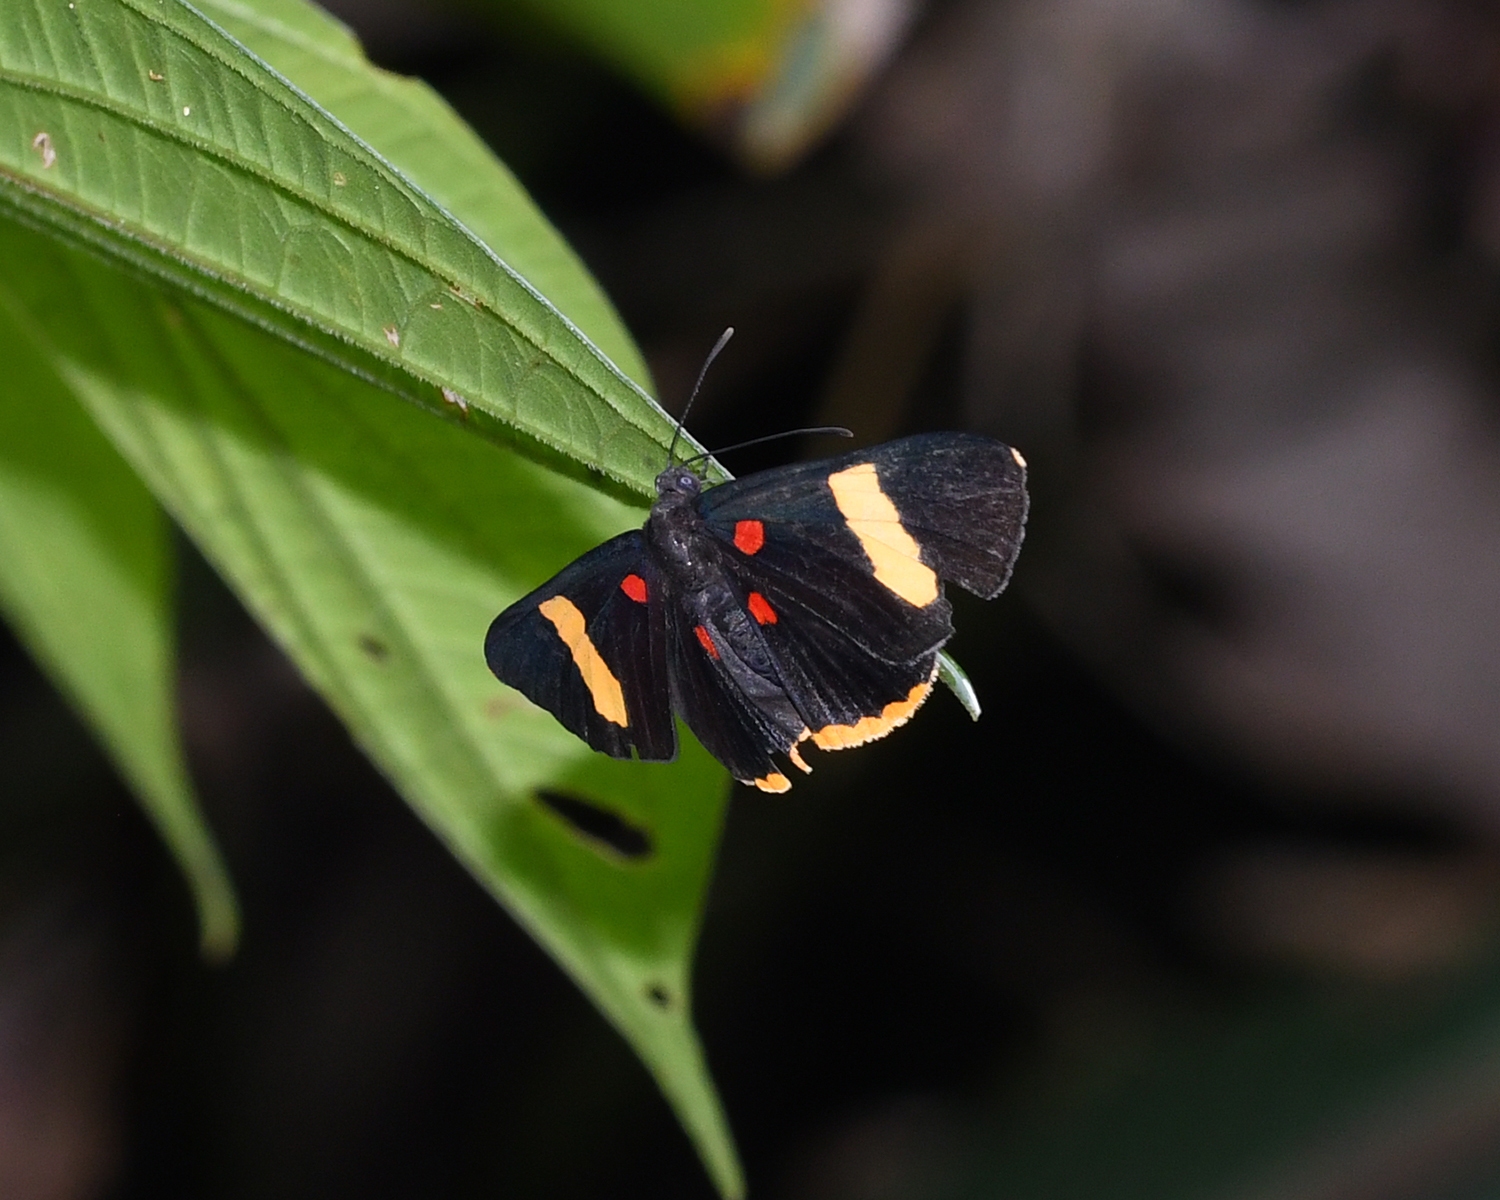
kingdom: Animalia
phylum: Arthropoda
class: Insecta
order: Lepidoptera
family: Lycaenidae
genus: Melanis
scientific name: Melanis electron
